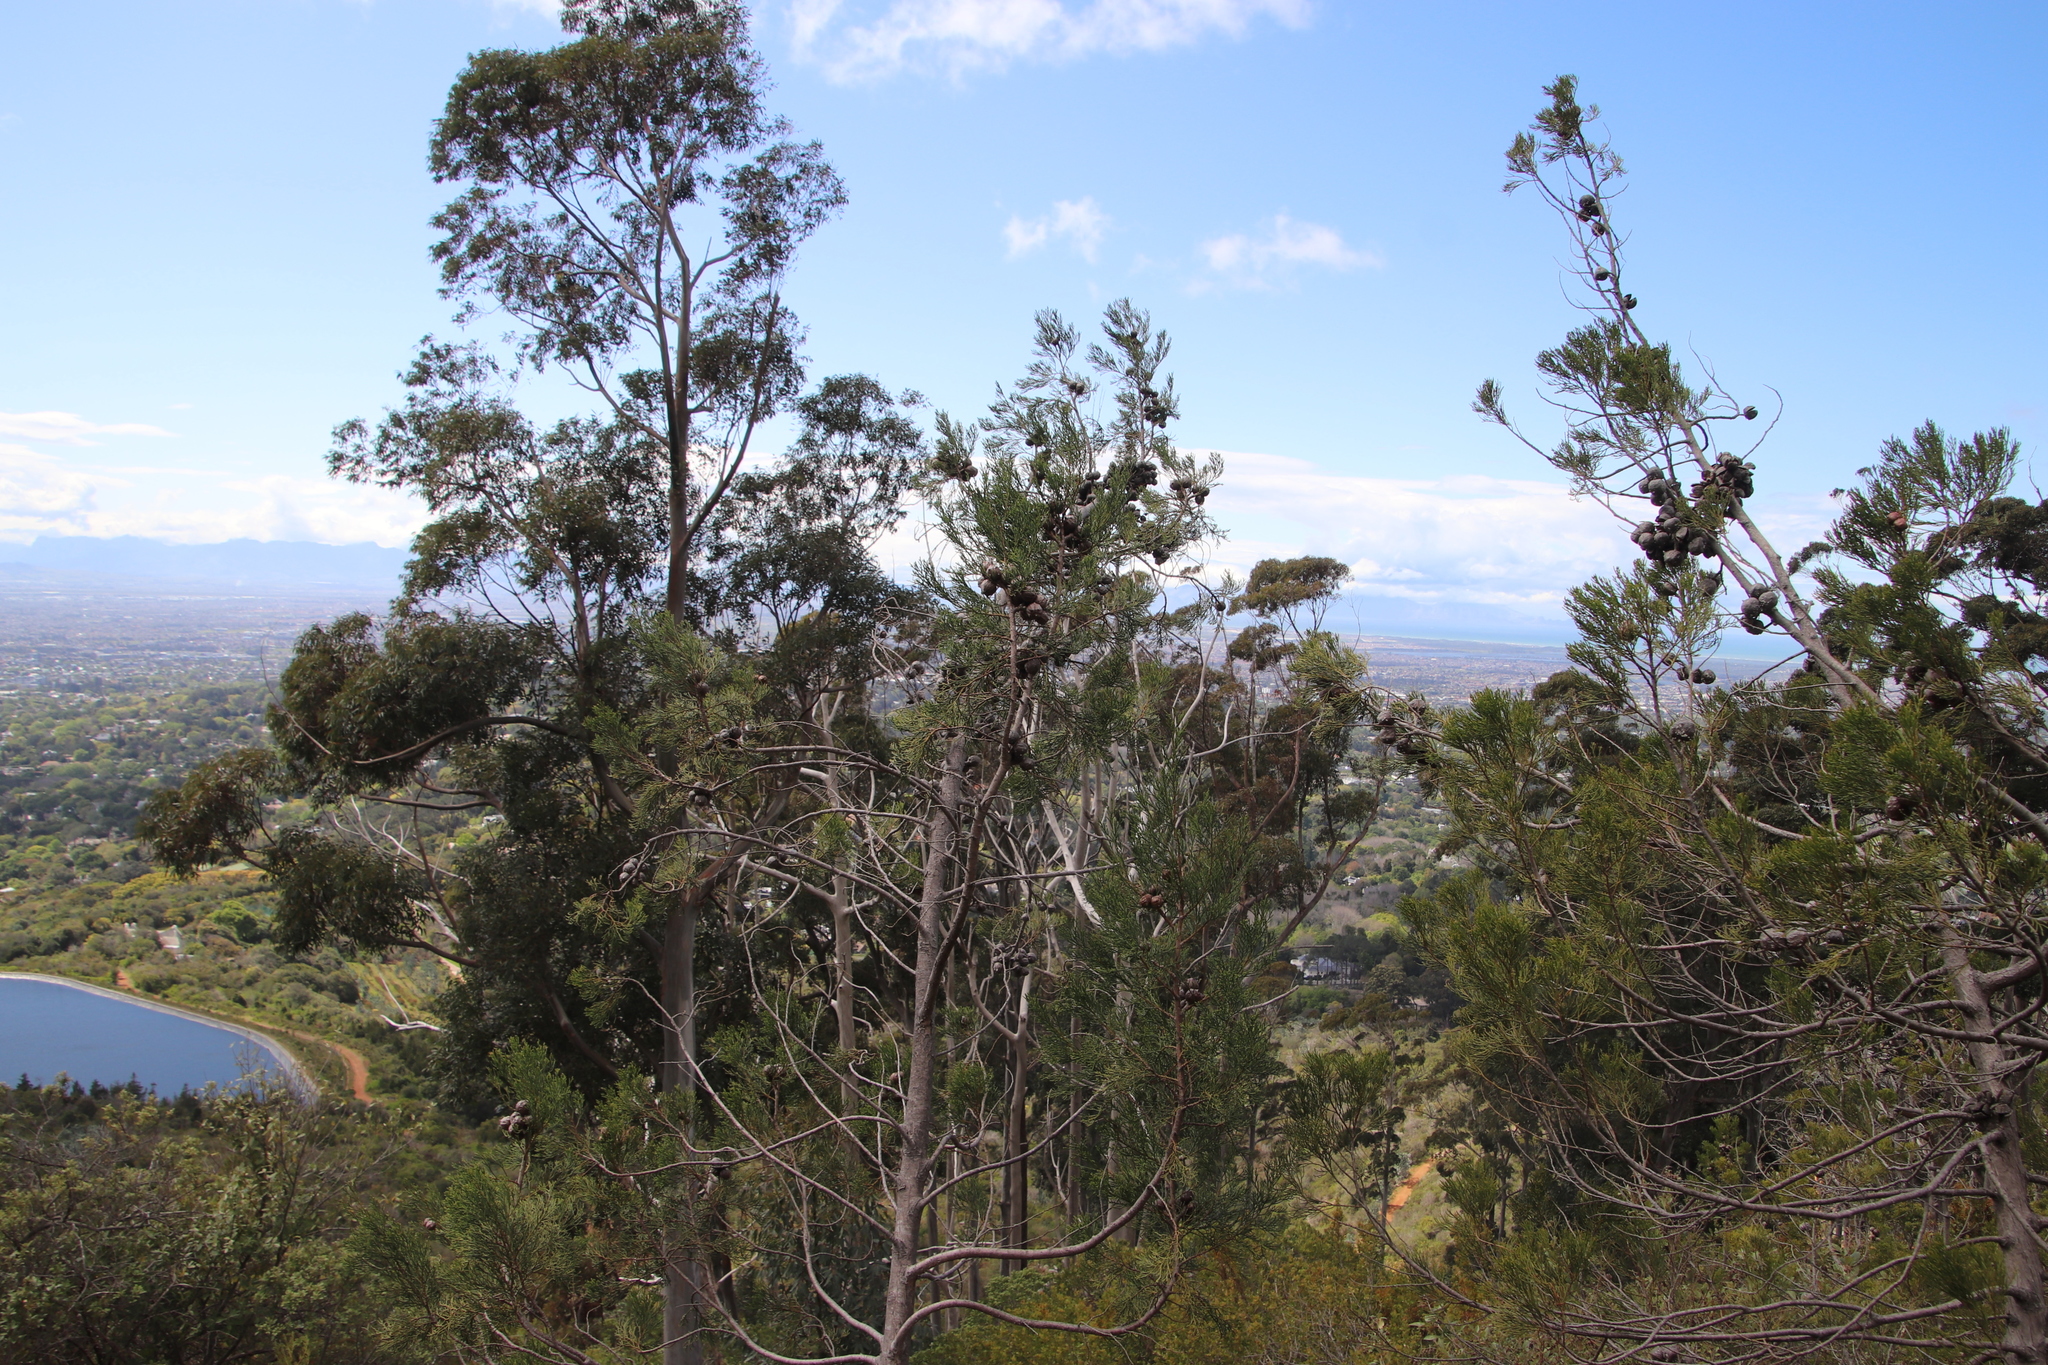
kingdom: Plantae
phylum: Tracheophyta
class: Pinopsida
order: Pinales
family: Cupressaceae
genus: Widdringtonia
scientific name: Widdringtonia nodiflora
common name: Cape cypress
